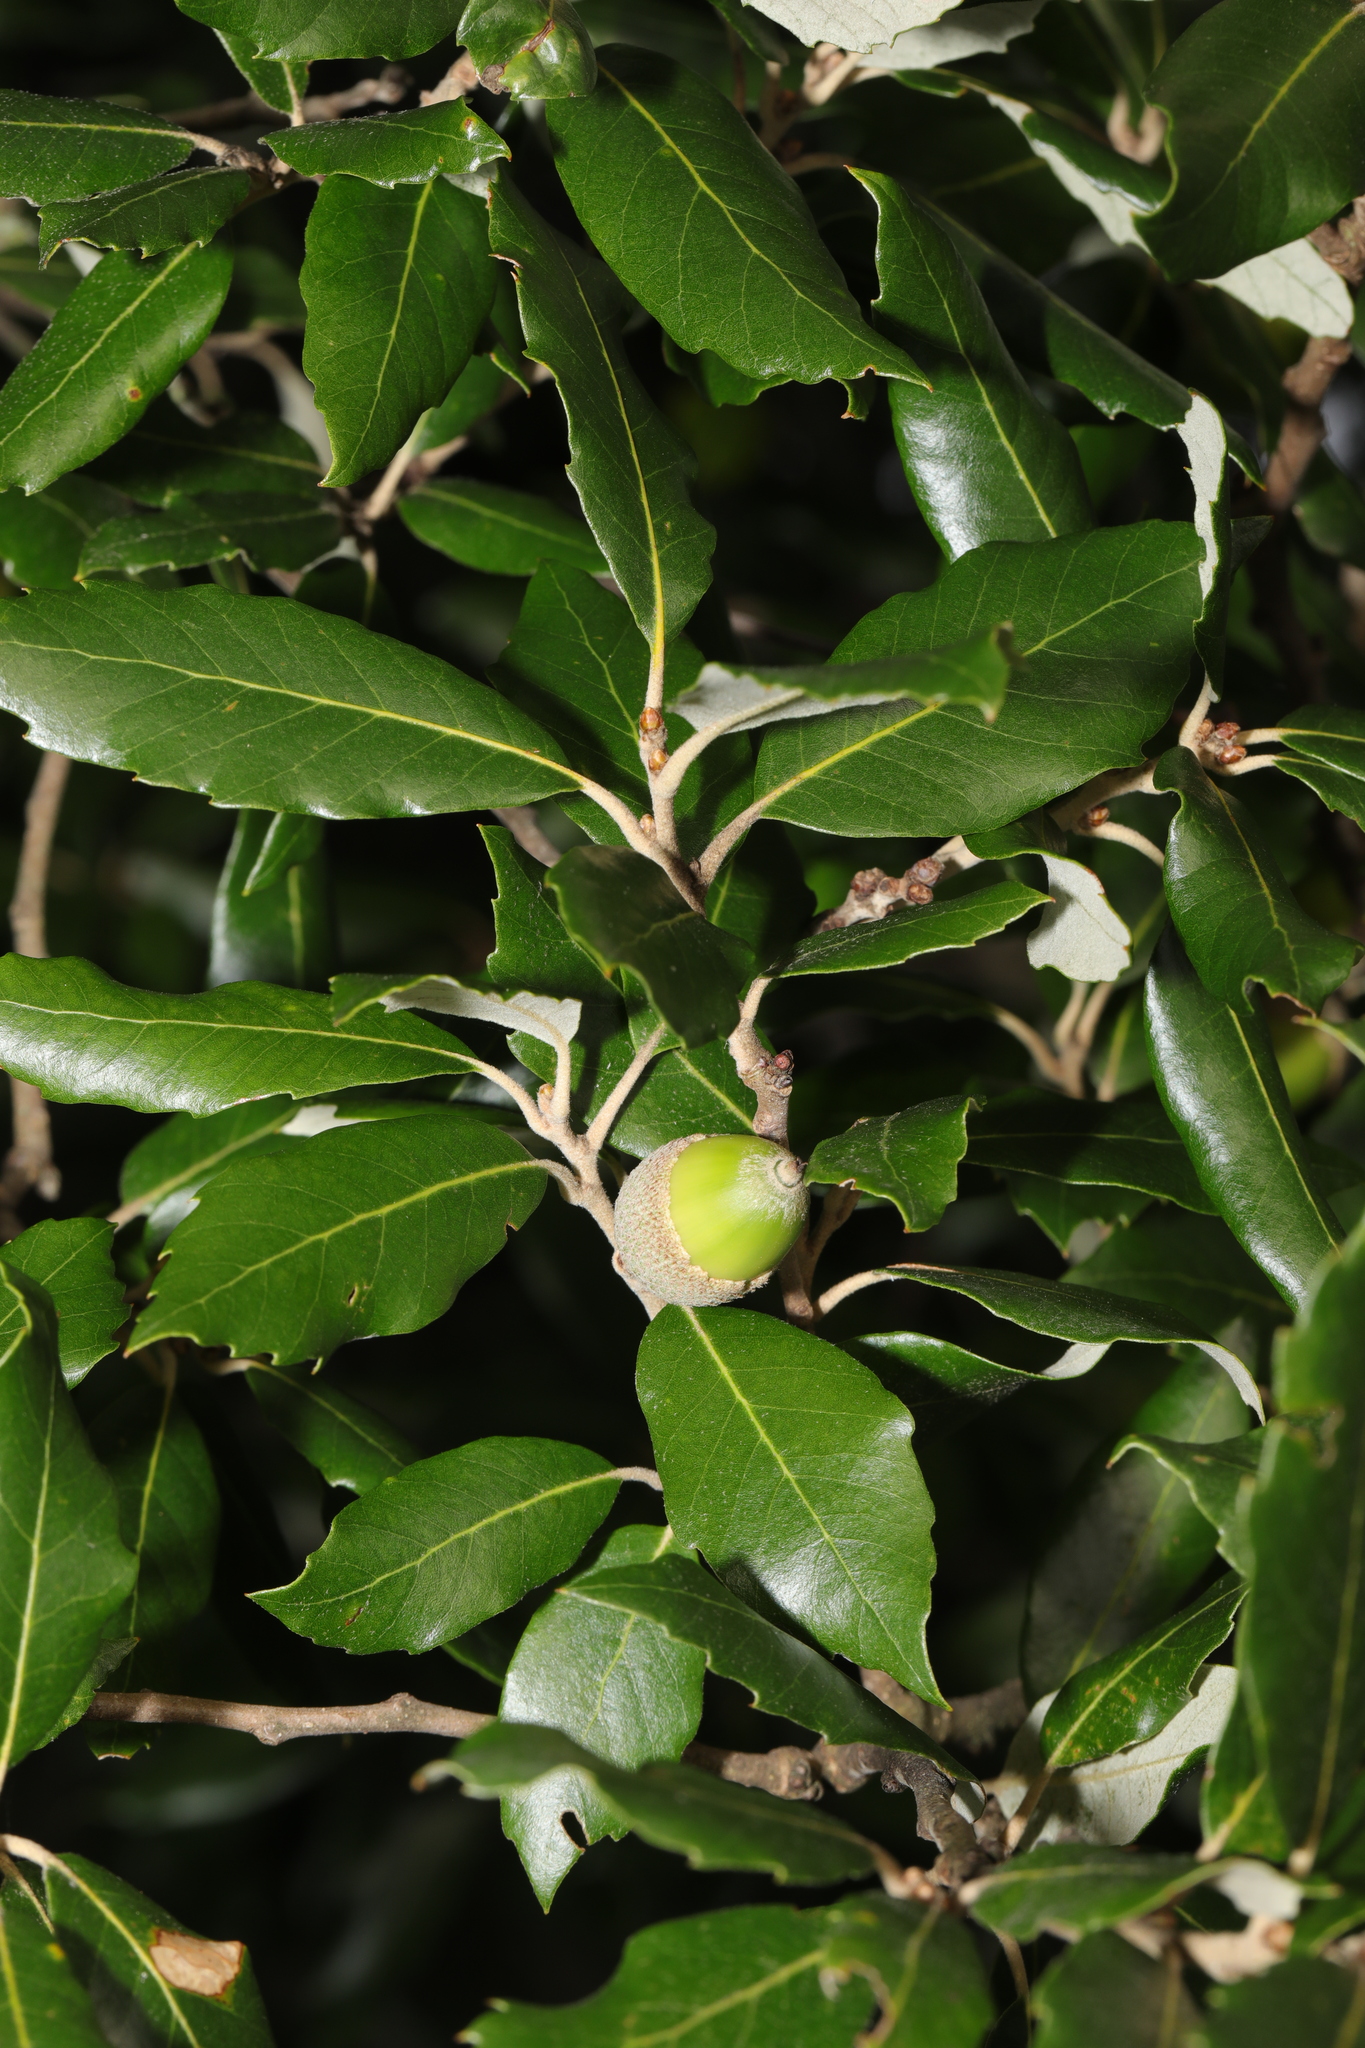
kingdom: Plantae
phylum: Tracheophyta
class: Magnoliopsida
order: Fagales
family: Fagaceae
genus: Quercus
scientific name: Quercus ilex
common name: Evergreen oak
